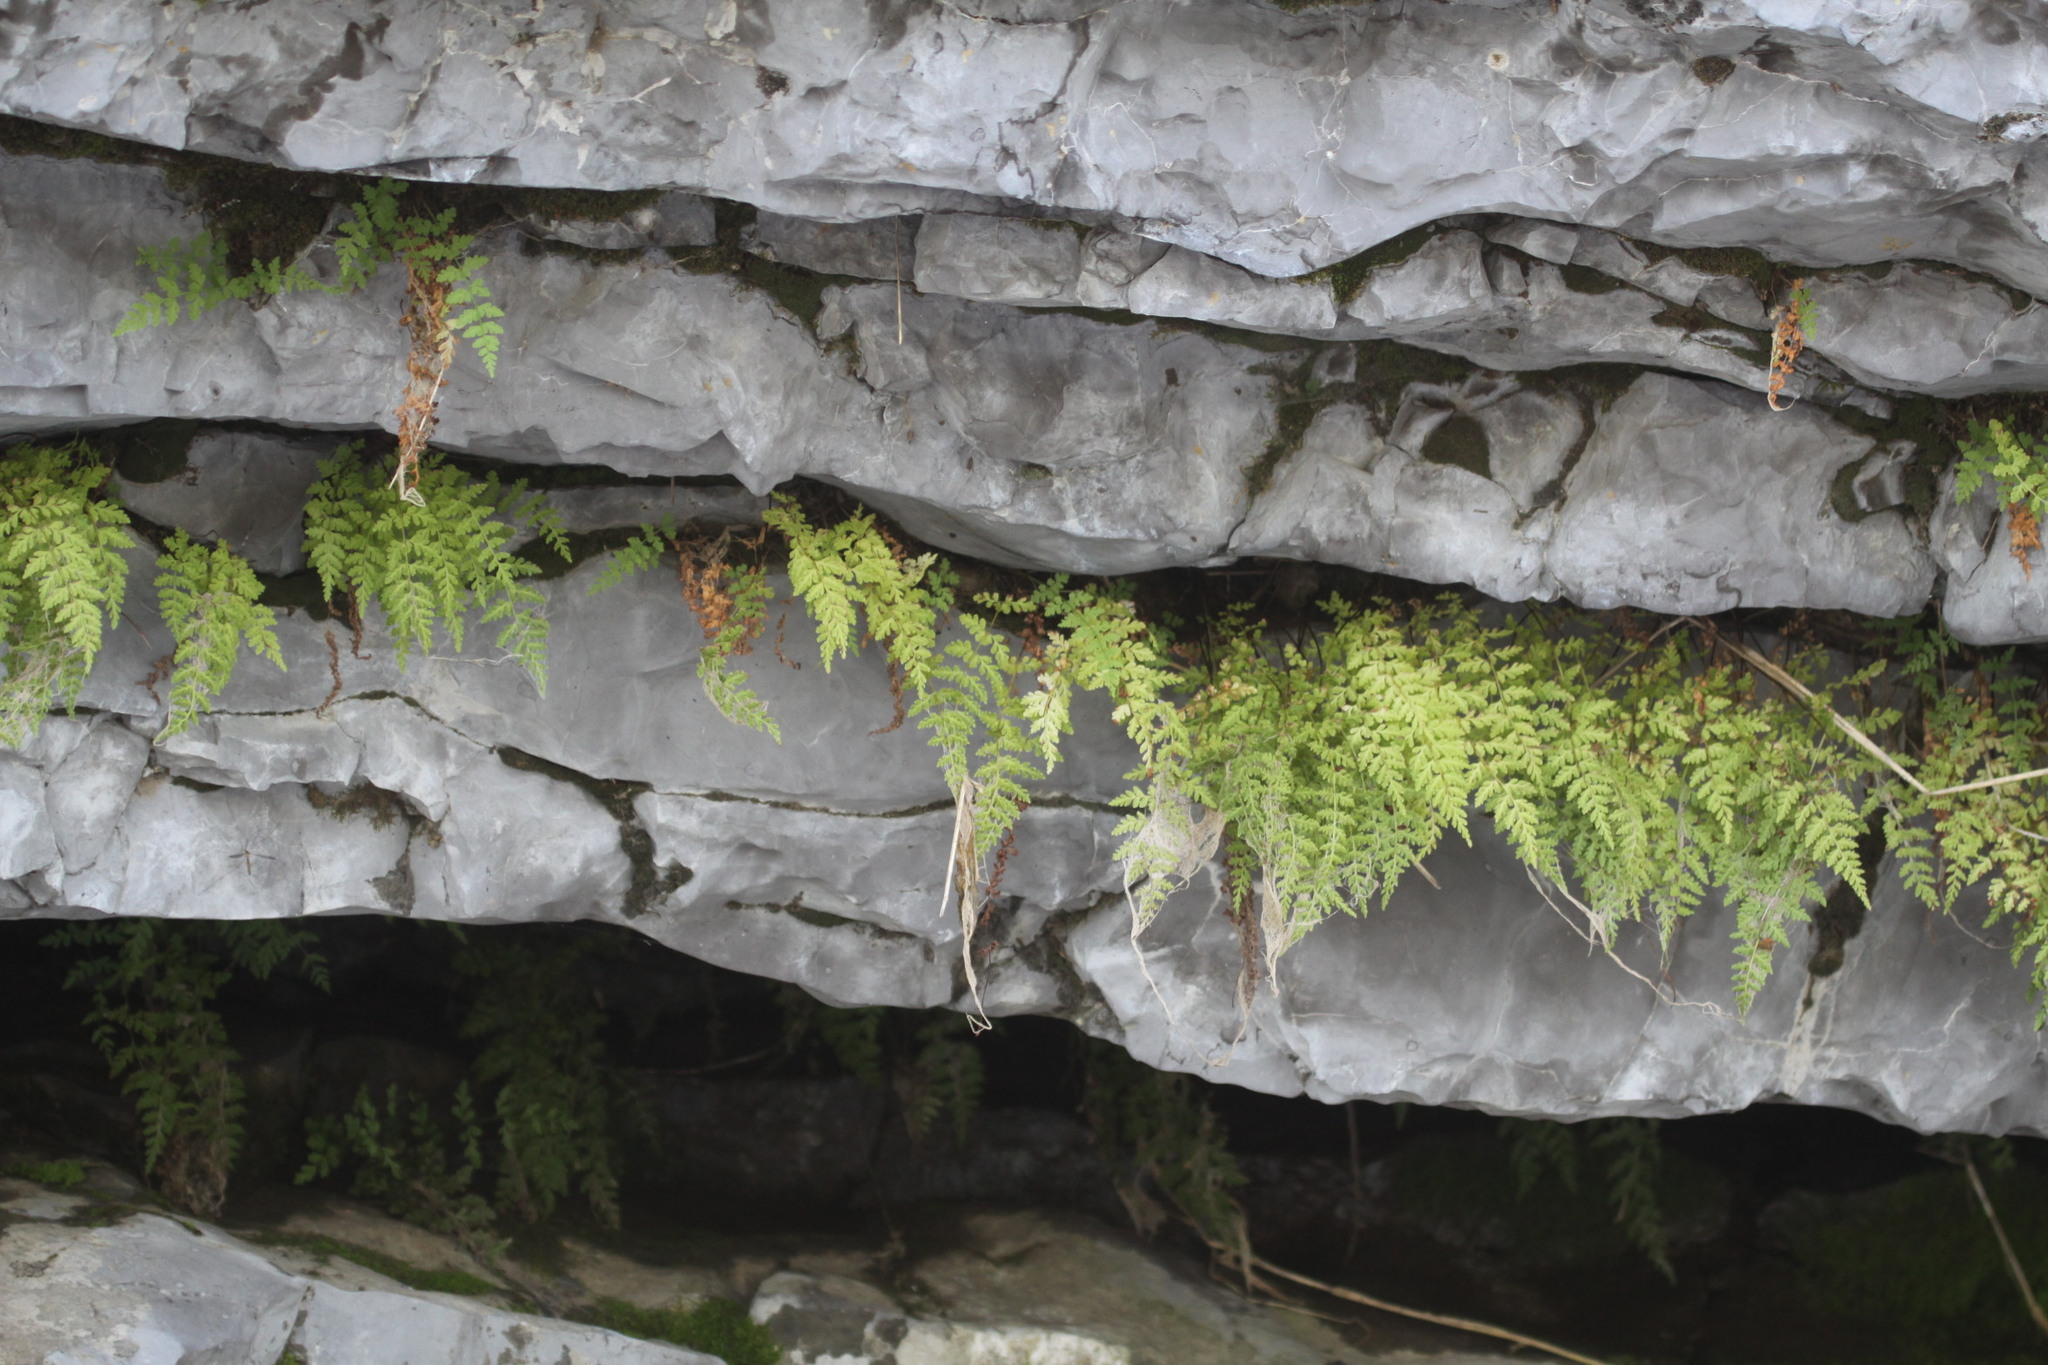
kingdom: Plantae
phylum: Tracheophyta
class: Polypodiopsida
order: Polypodiales
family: Cystopteridaceae
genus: Cystopteris
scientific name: Cystopteris fragilis
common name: Brittle bladder fern
